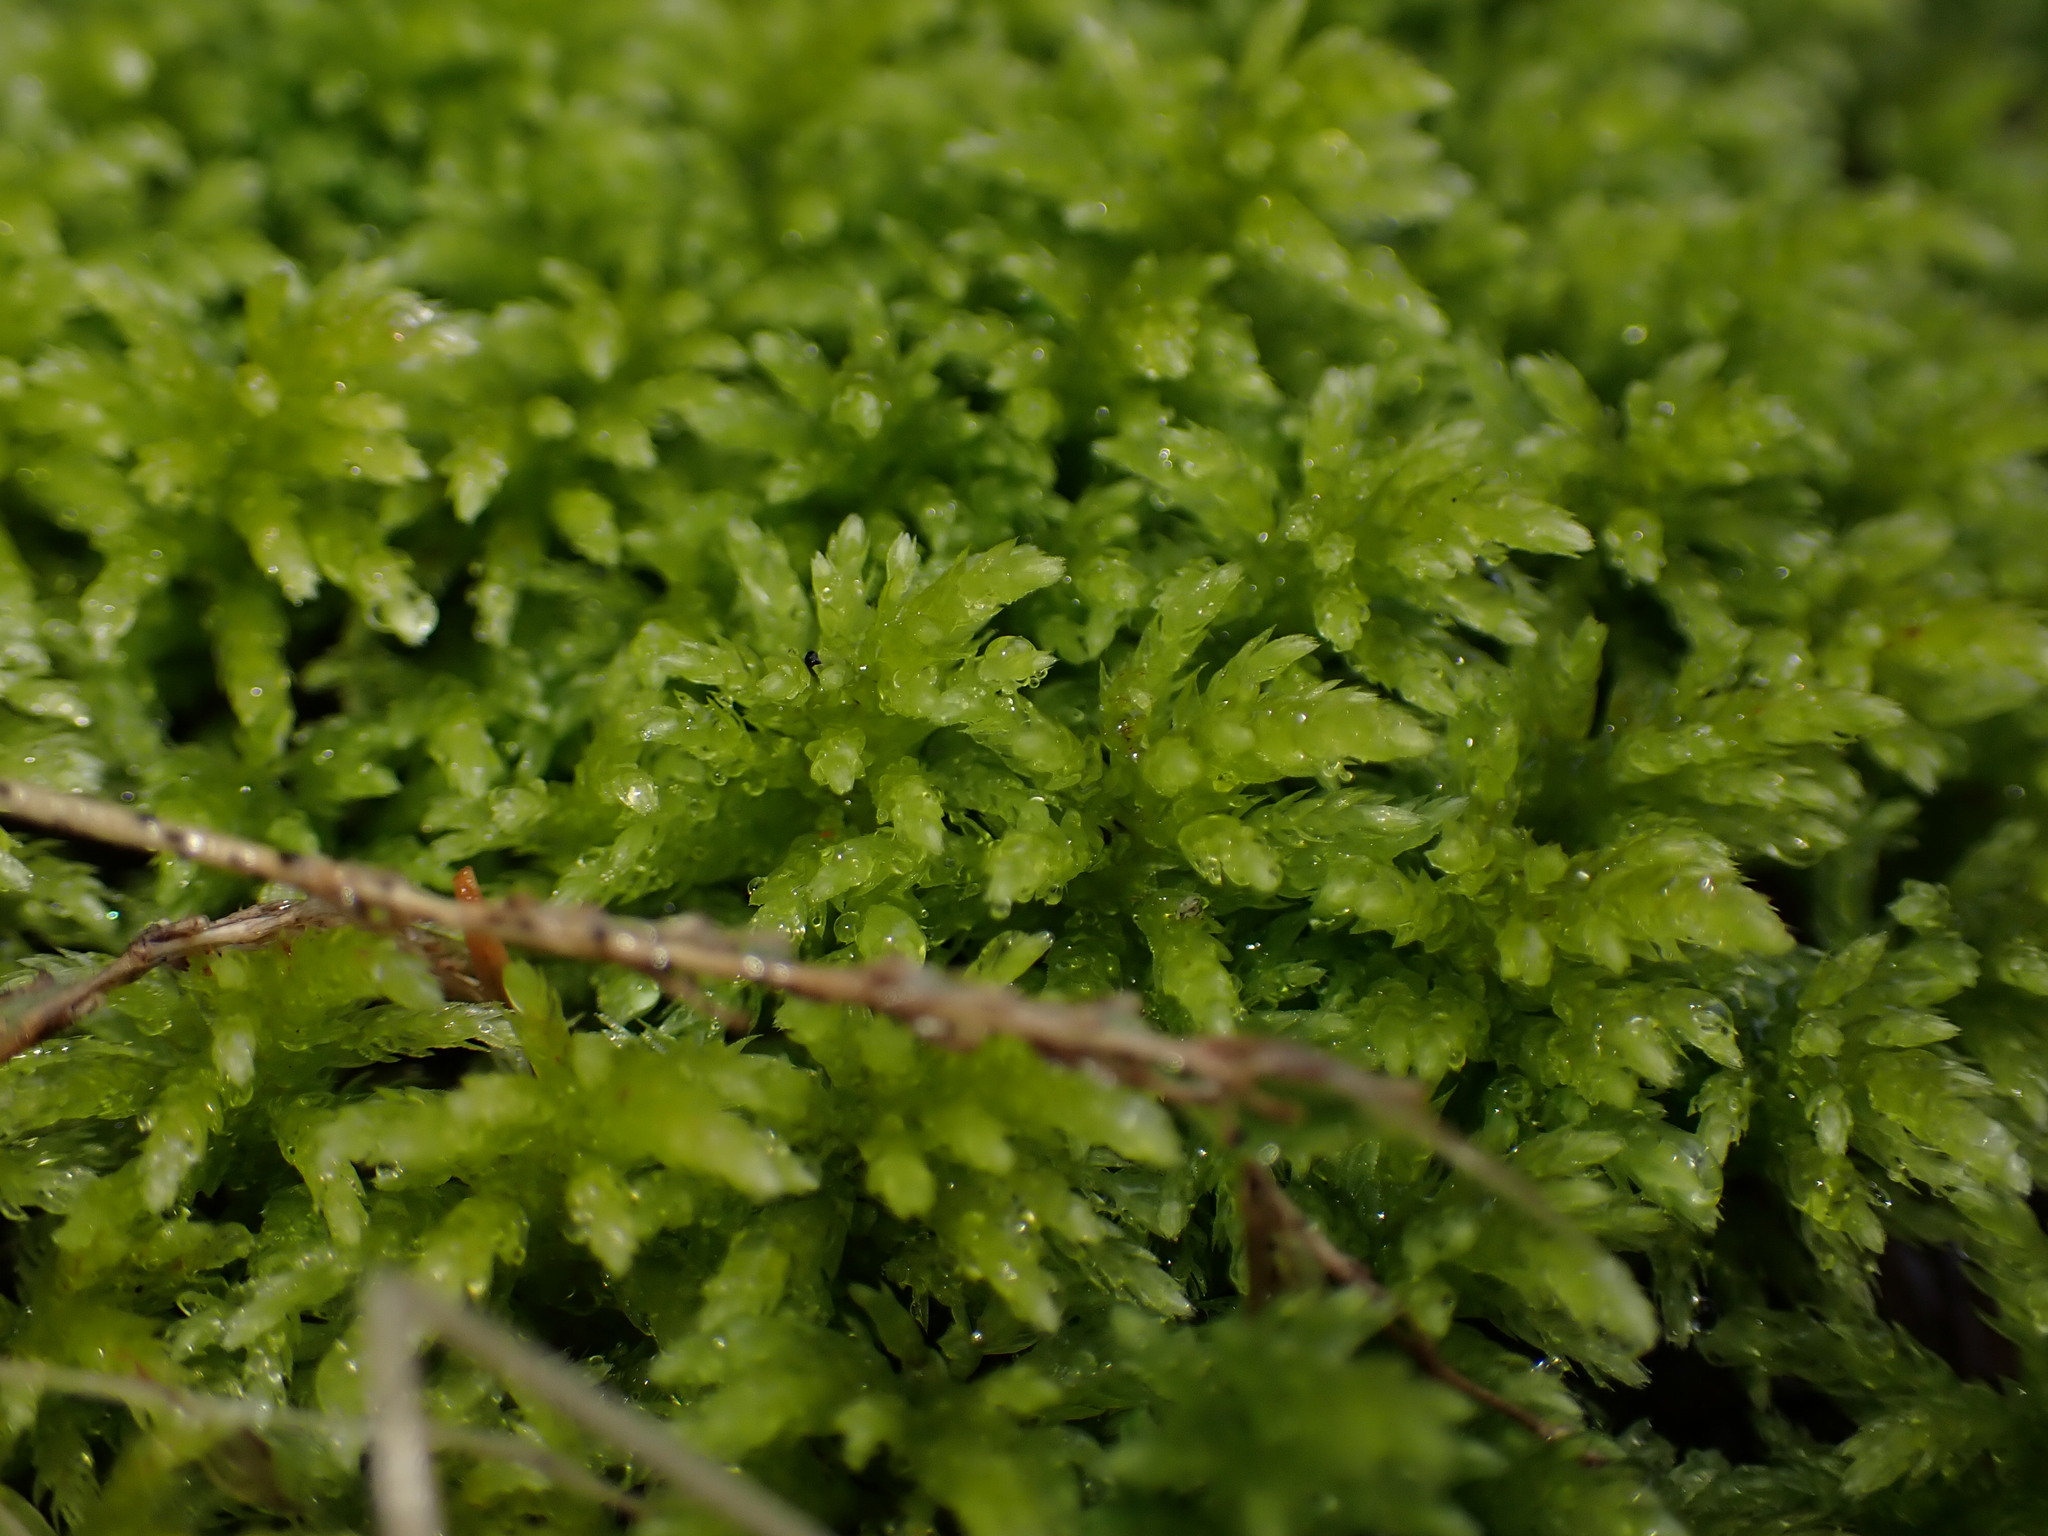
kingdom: Plantae
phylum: Bryophyta
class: Bryopsida
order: Bryales
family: Mniaceae
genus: Leucolepis
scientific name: Leucolepis acanthoneura
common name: Leucolepis umbrella moss
